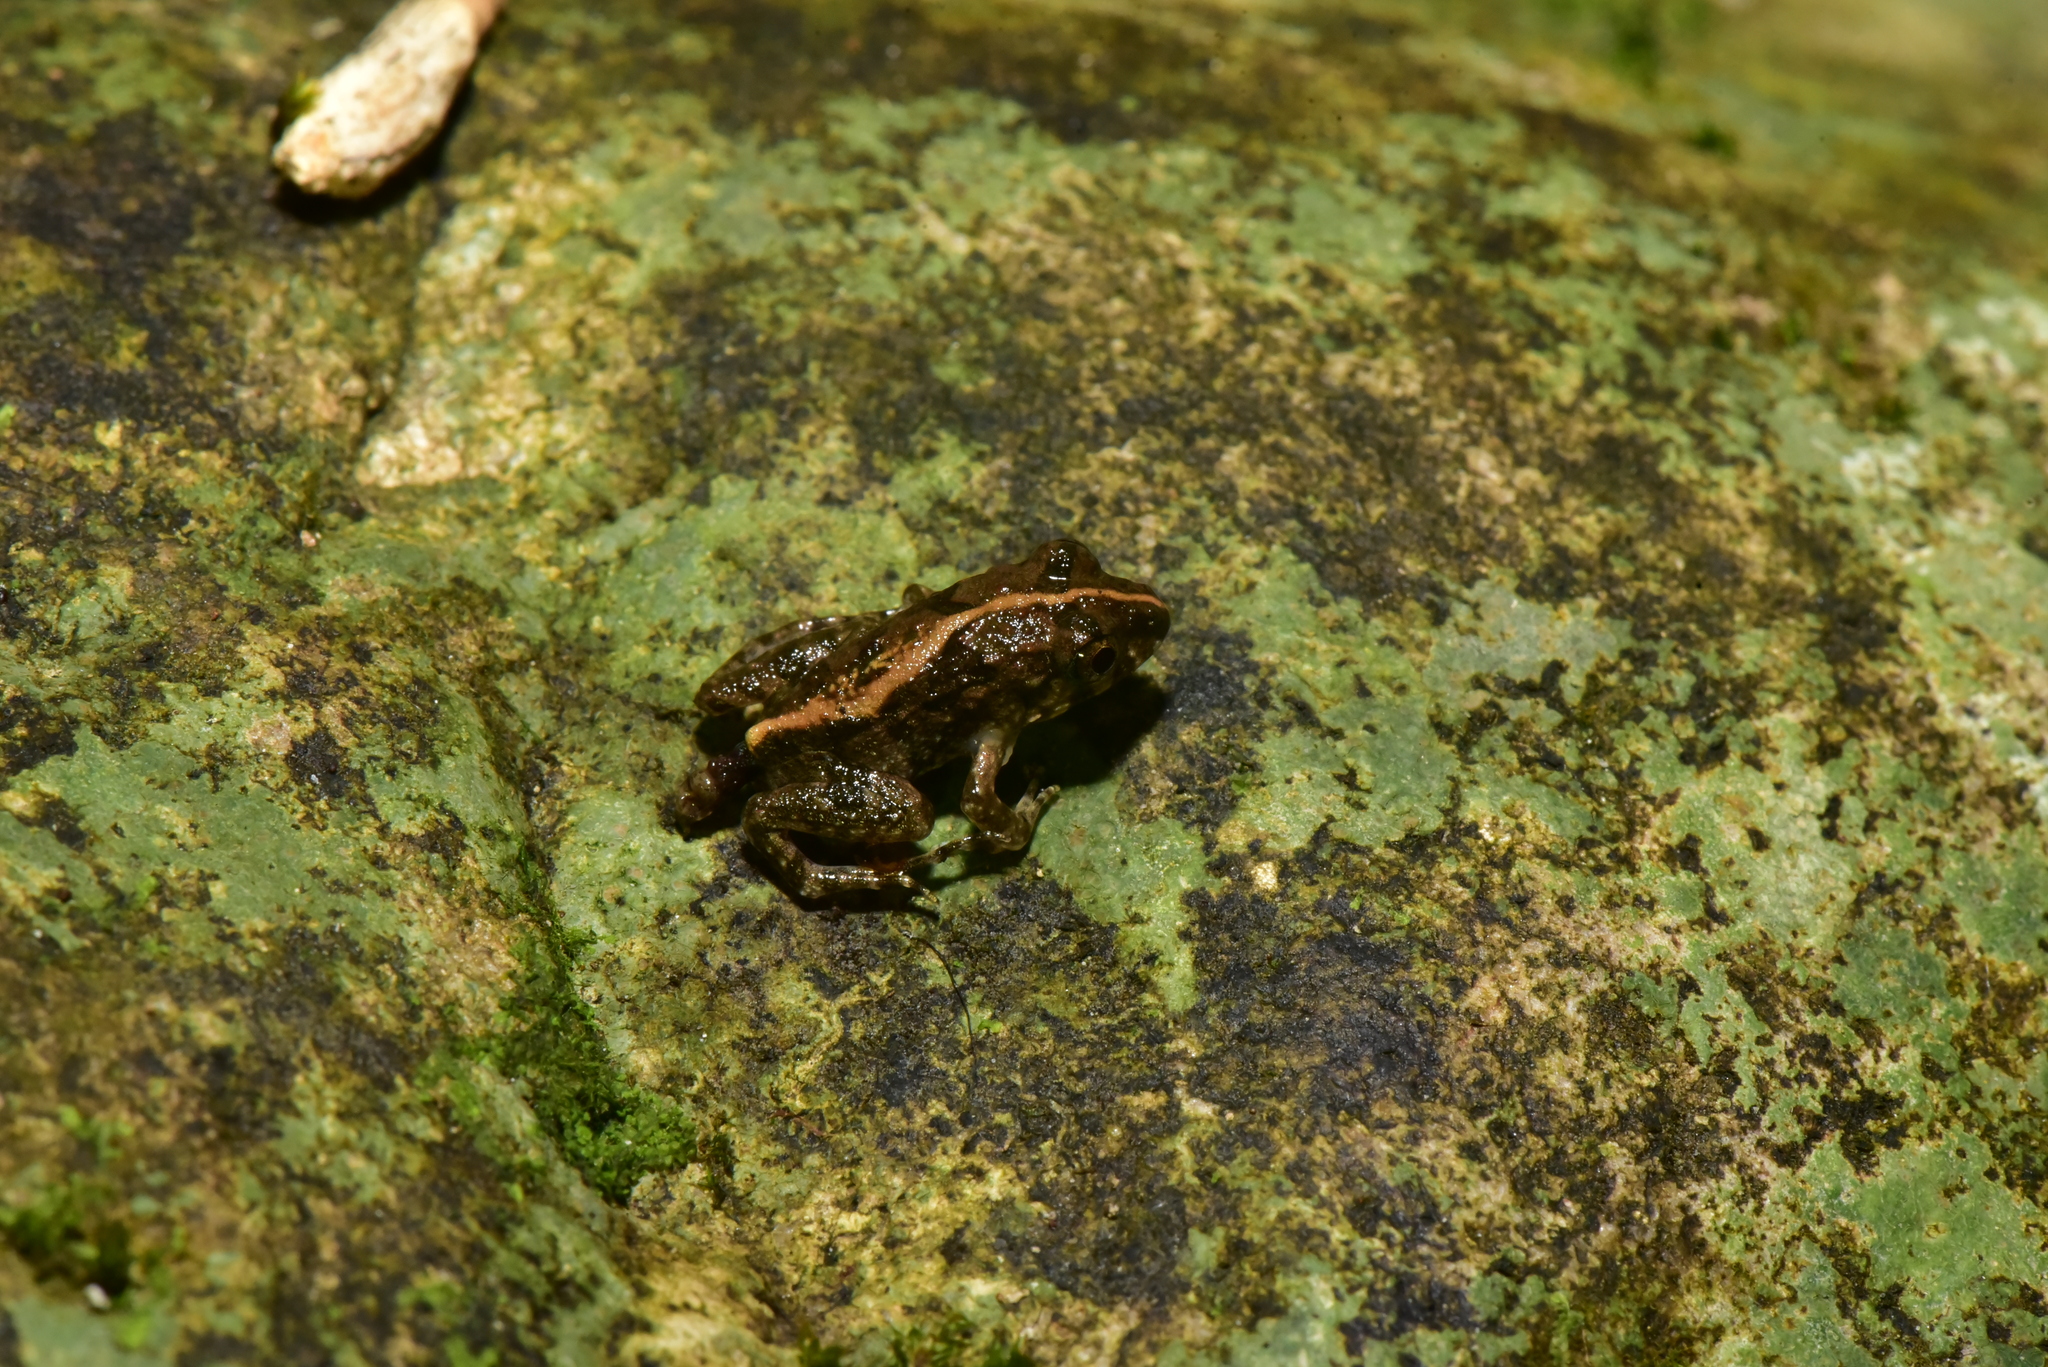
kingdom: Animalia
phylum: Chordata
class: Amphibia
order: Anura
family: Dicroglossidae
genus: Fejervarya
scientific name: Fejervarya limnocharis
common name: Asian grass frog/common pond frog/field frog/grass frog/indian rice frog
